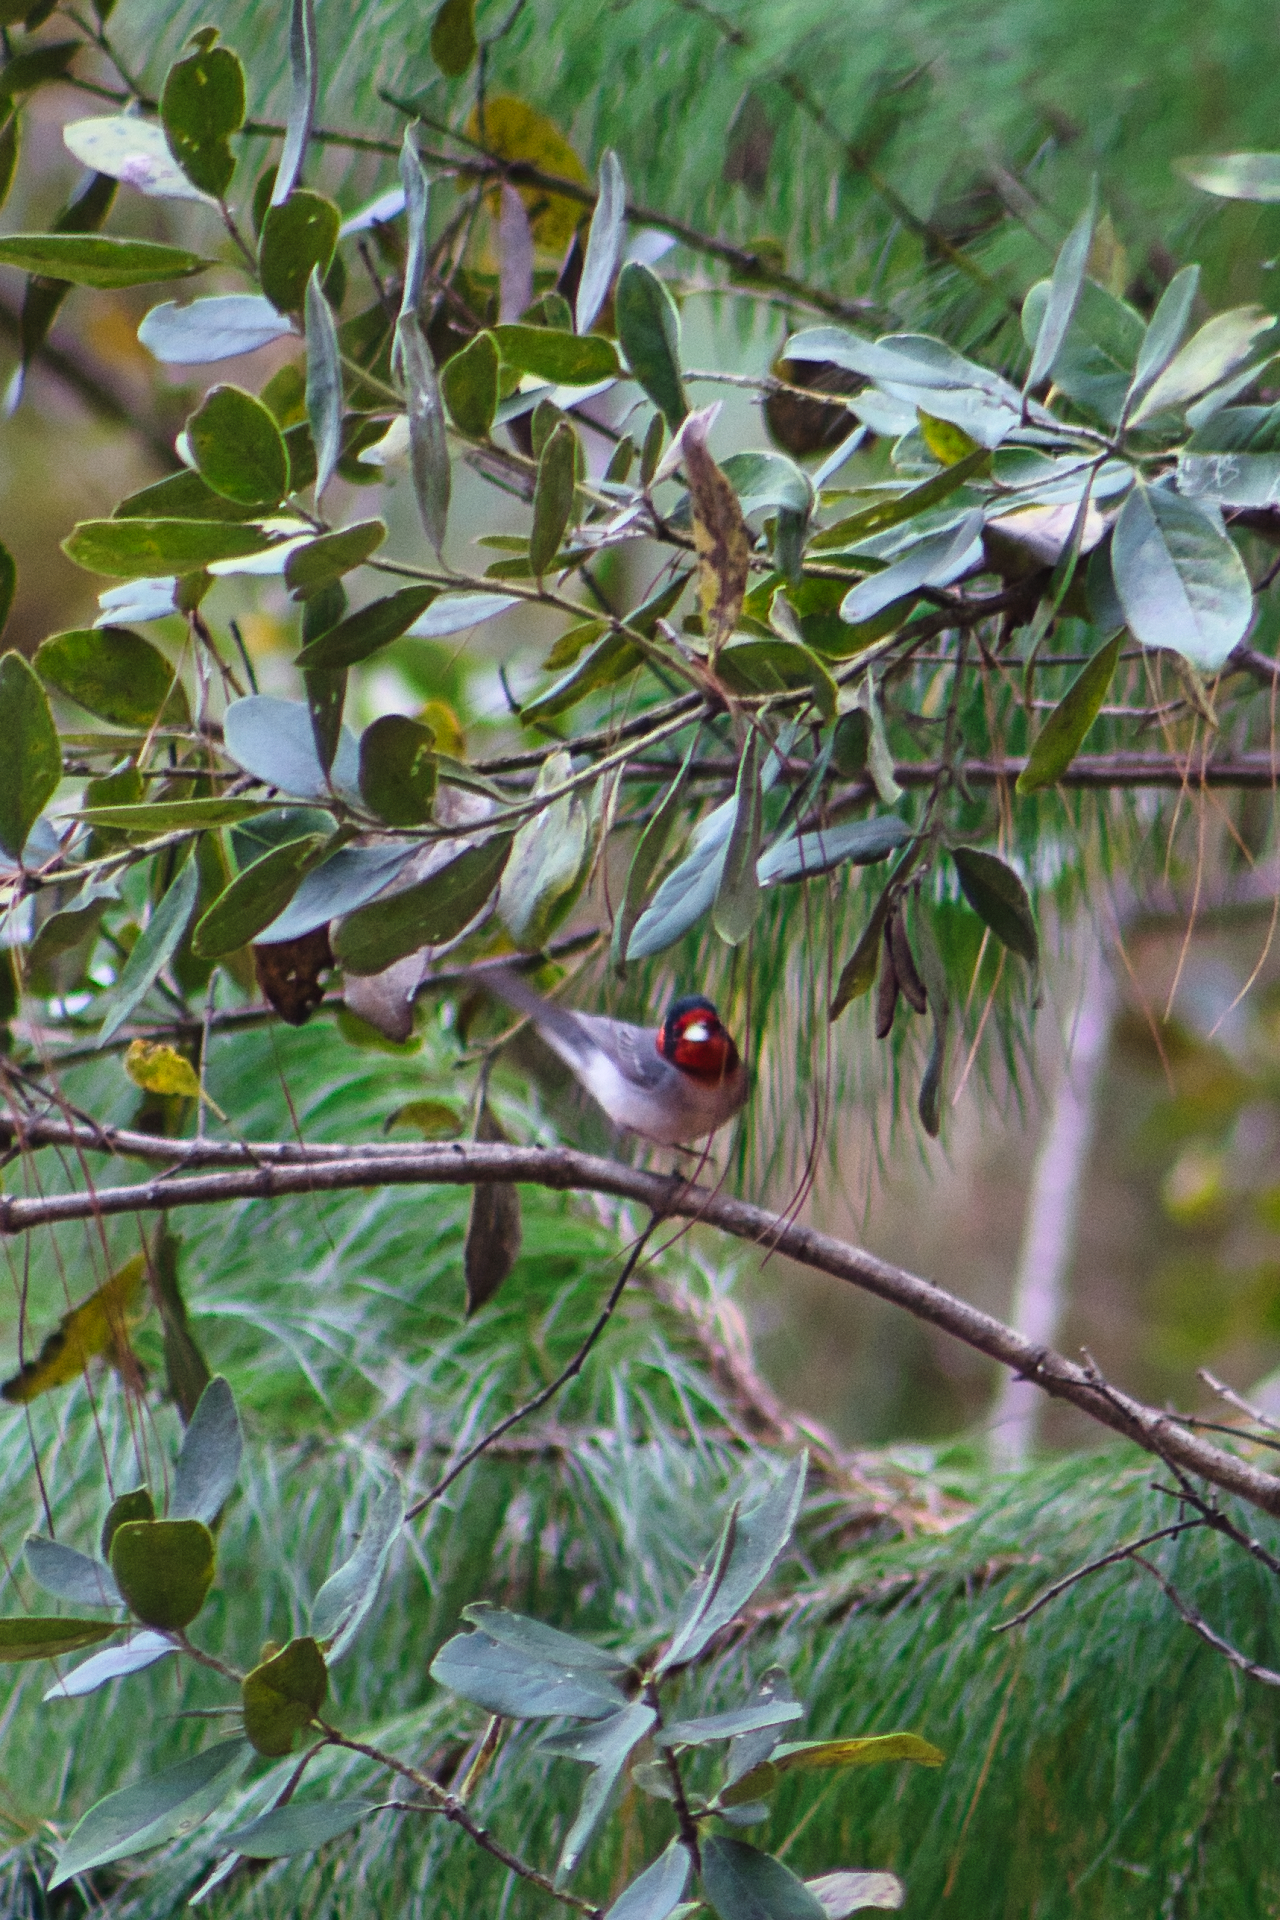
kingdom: Animalia
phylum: Chordata
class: Aves
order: Passeriformes
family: Parulidae
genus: Cardellina
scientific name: Cardellina rubrifrons
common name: Red-faced warbler
